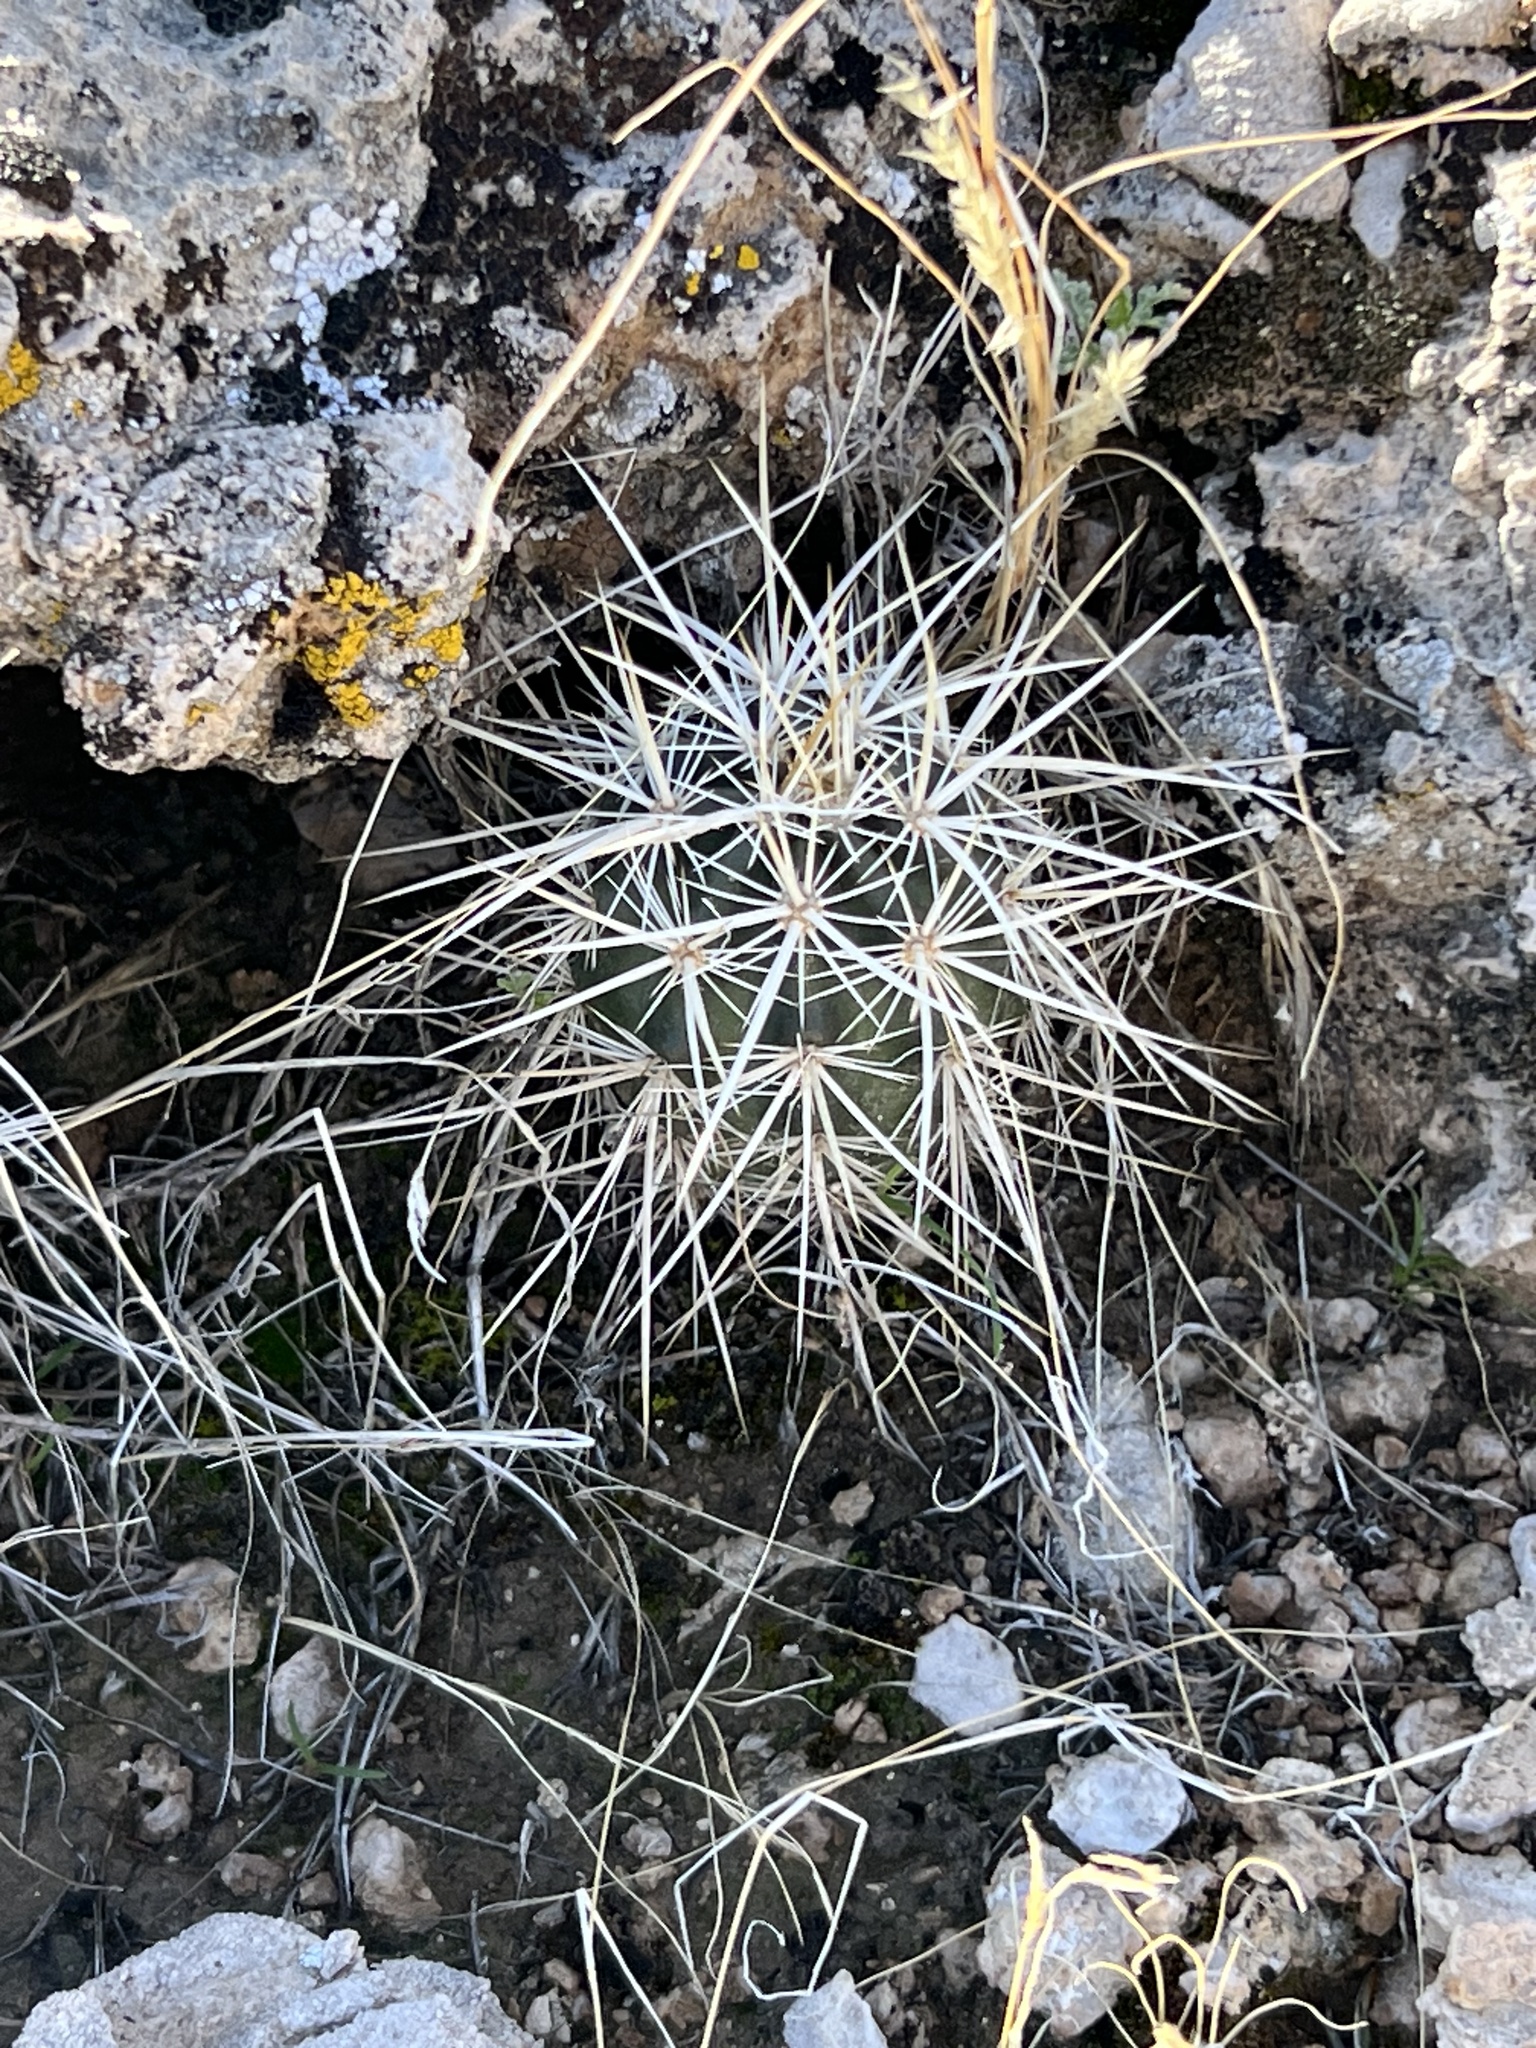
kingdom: Plantae
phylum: Tracheophyta
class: Magnoliopsida
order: Caryophyllales
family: Cactaceae
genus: Echinocereus
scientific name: Echinocereus engelmannii
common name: Engelmann's hedgehog cactus
